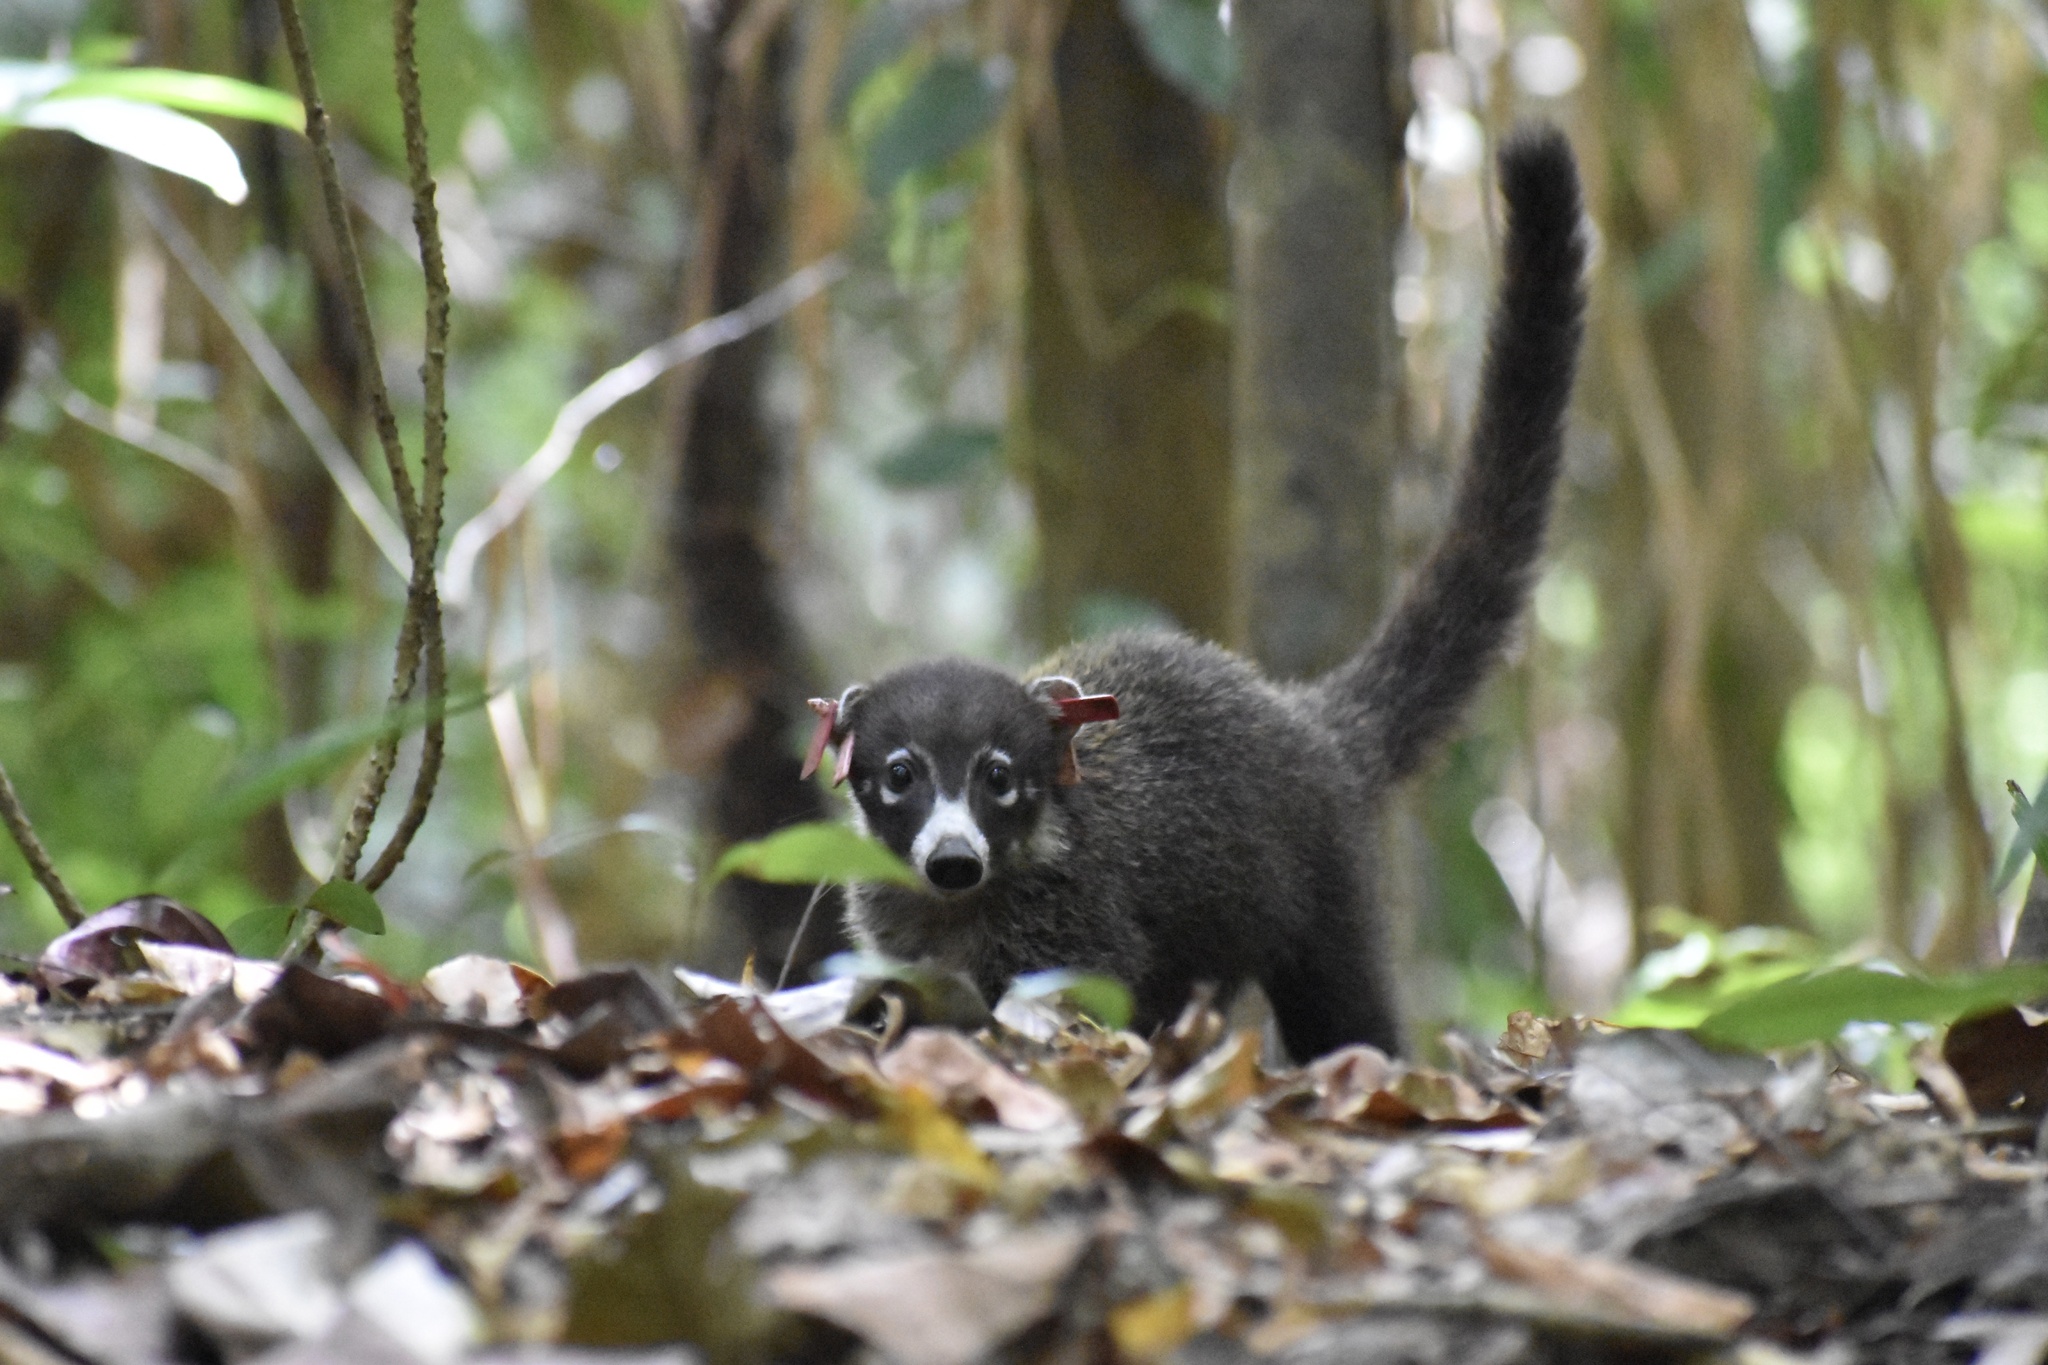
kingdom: Animalia
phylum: Chordata
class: Mammalia
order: Carnivora
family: Procyonidae
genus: Nasua
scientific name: Nasua narica
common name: White-nosed coati
